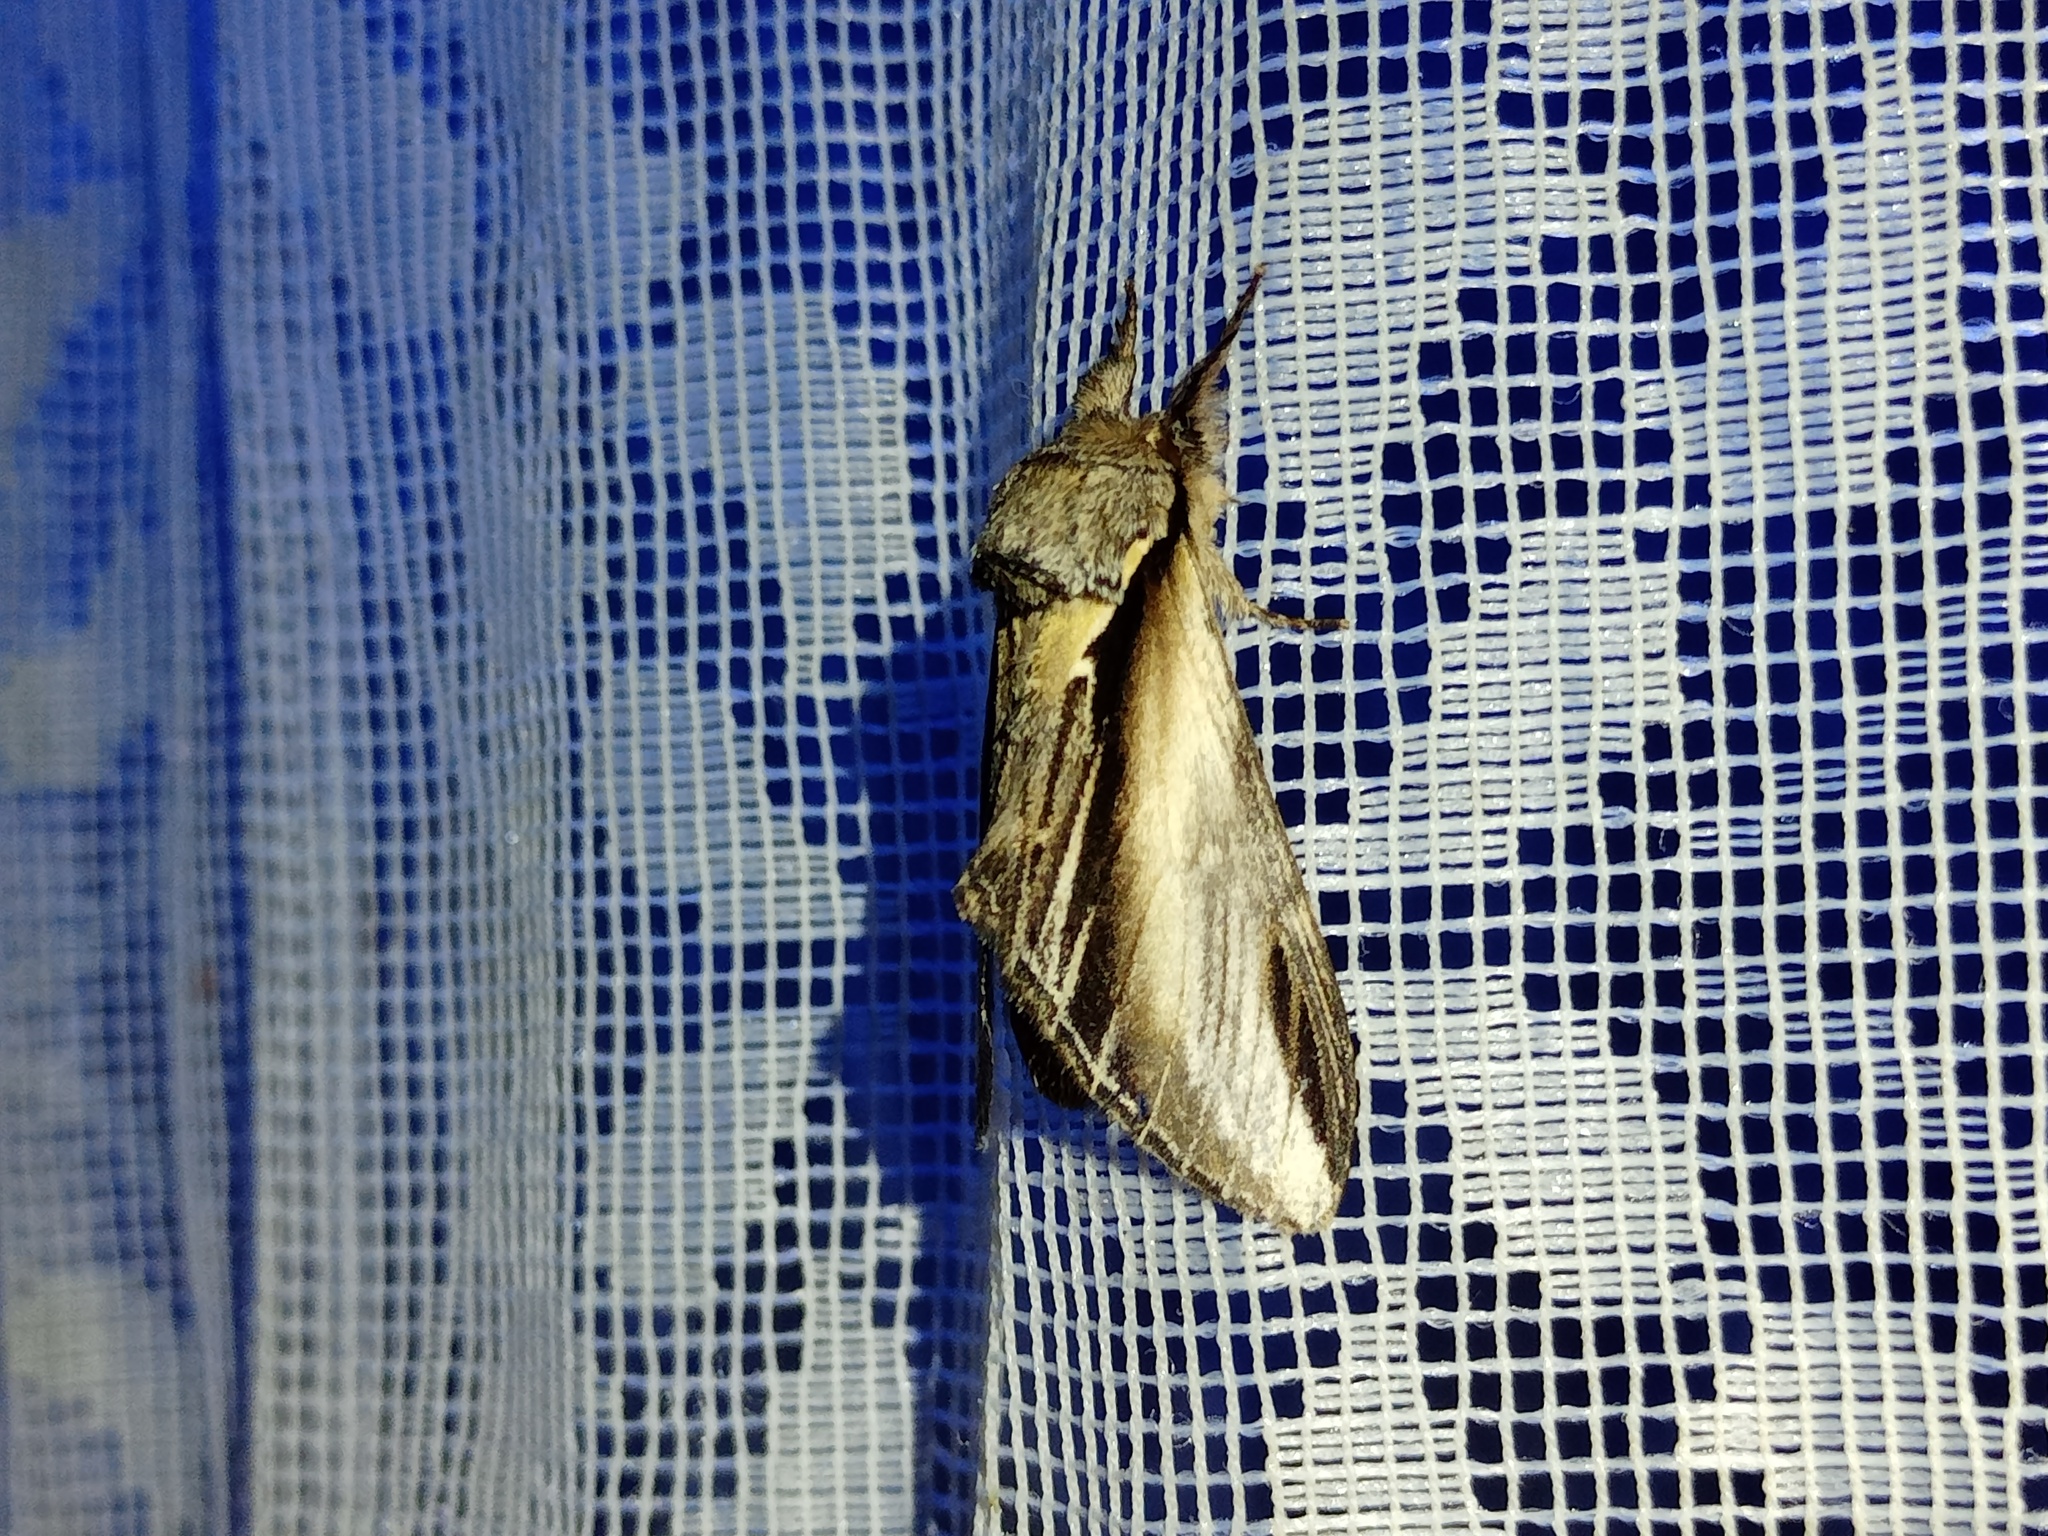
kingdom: Animalia
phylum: Arthropoda
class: Insecta
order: Lepidoptera
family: Notodontidae
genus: Pheosia
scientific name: Pheosia tremula
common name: Swallow prominent
